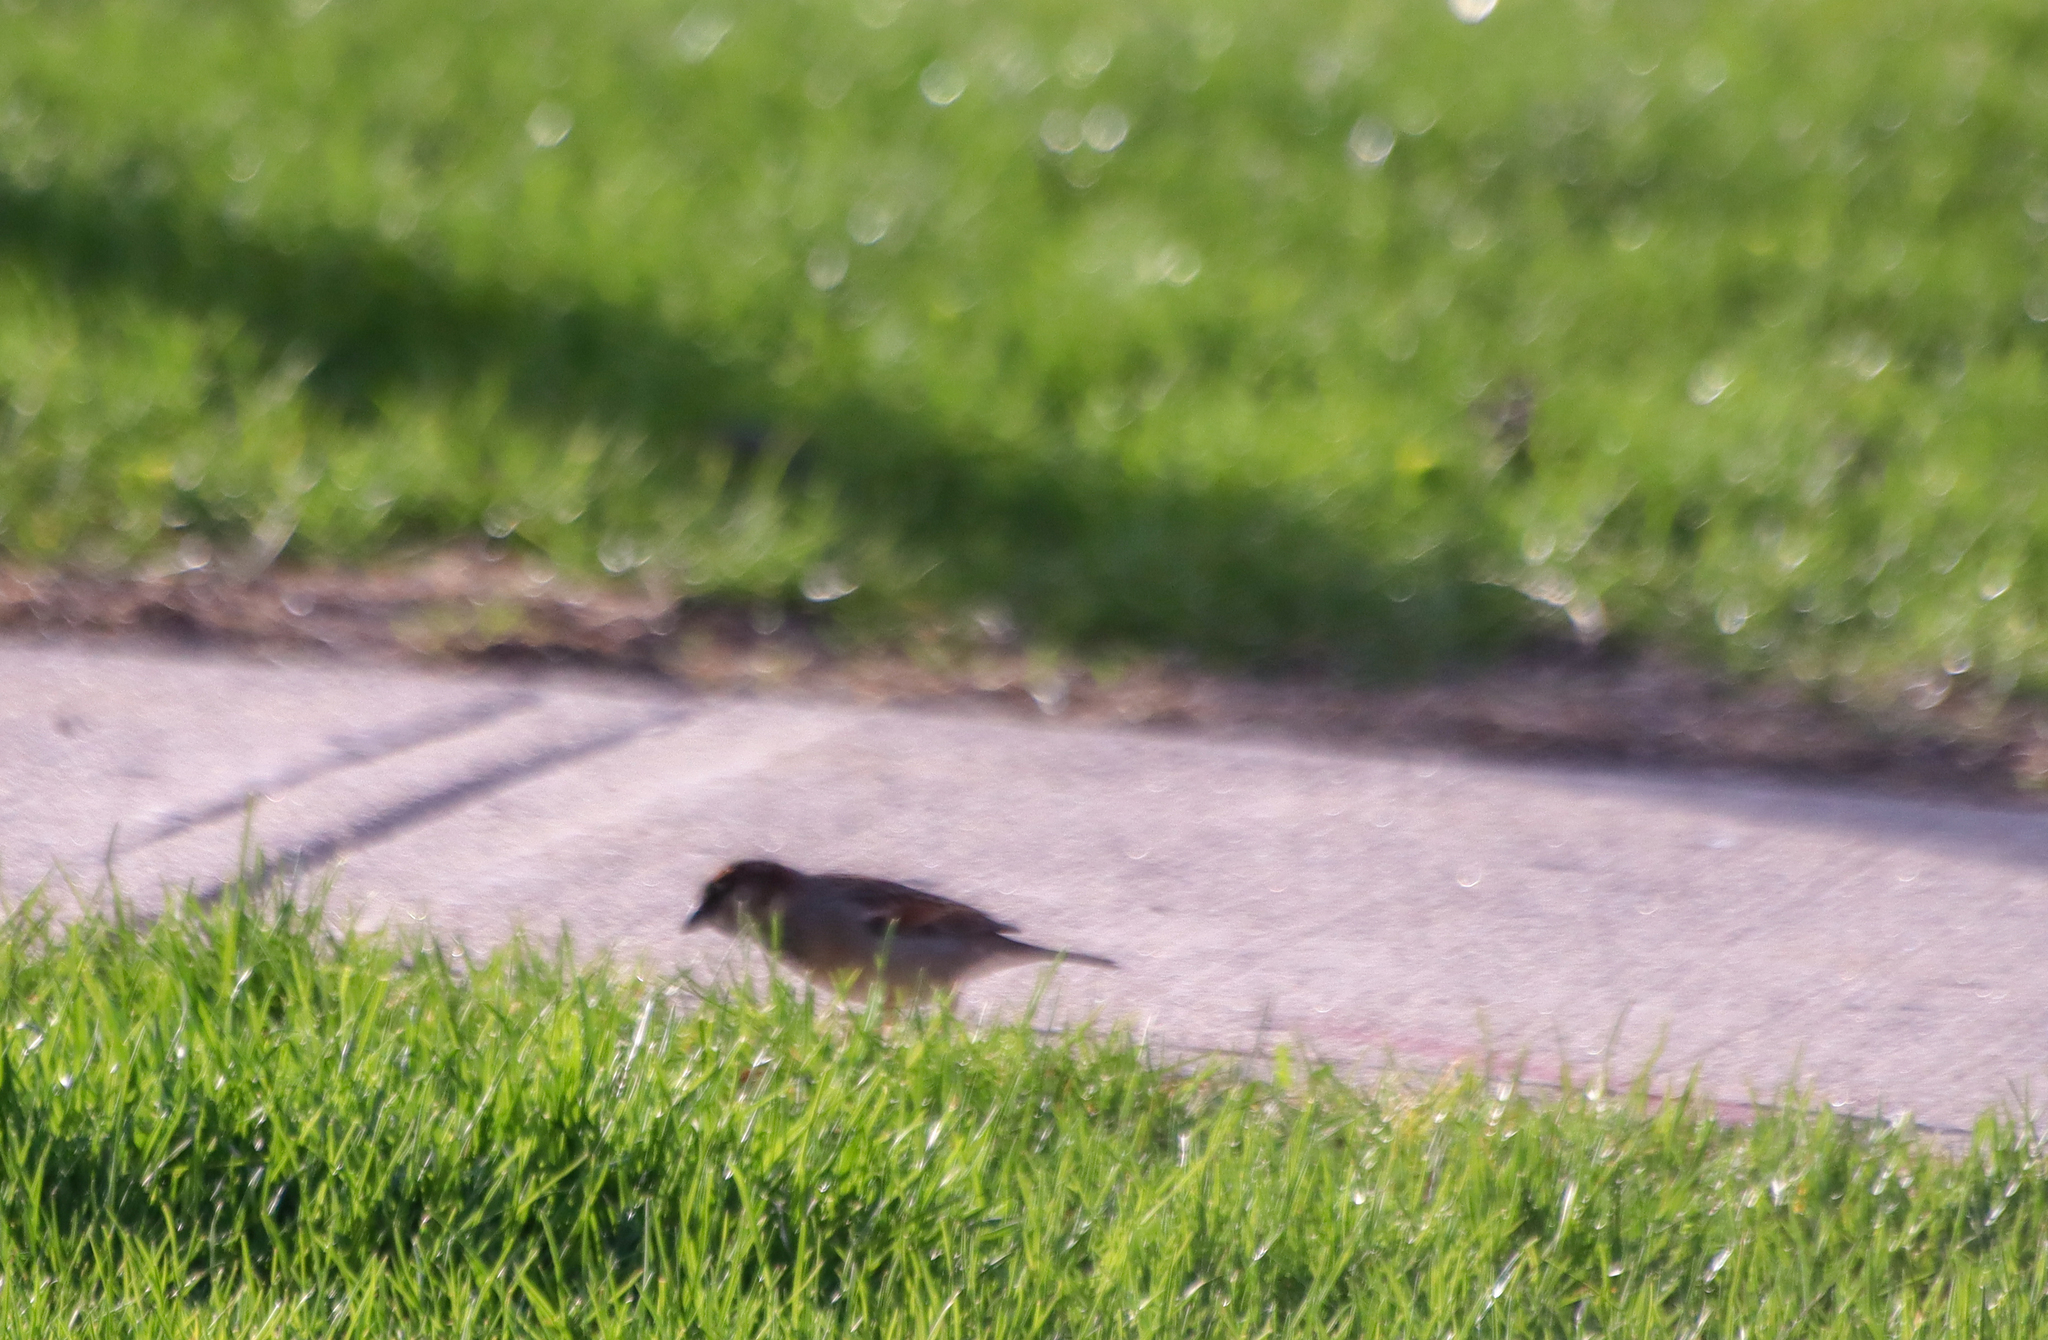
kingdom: Animalia
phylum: Chordata
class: Aves
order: Passeriformes
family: Passeridae
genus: Passer
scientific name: Passer domesticus
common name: House sparrow
